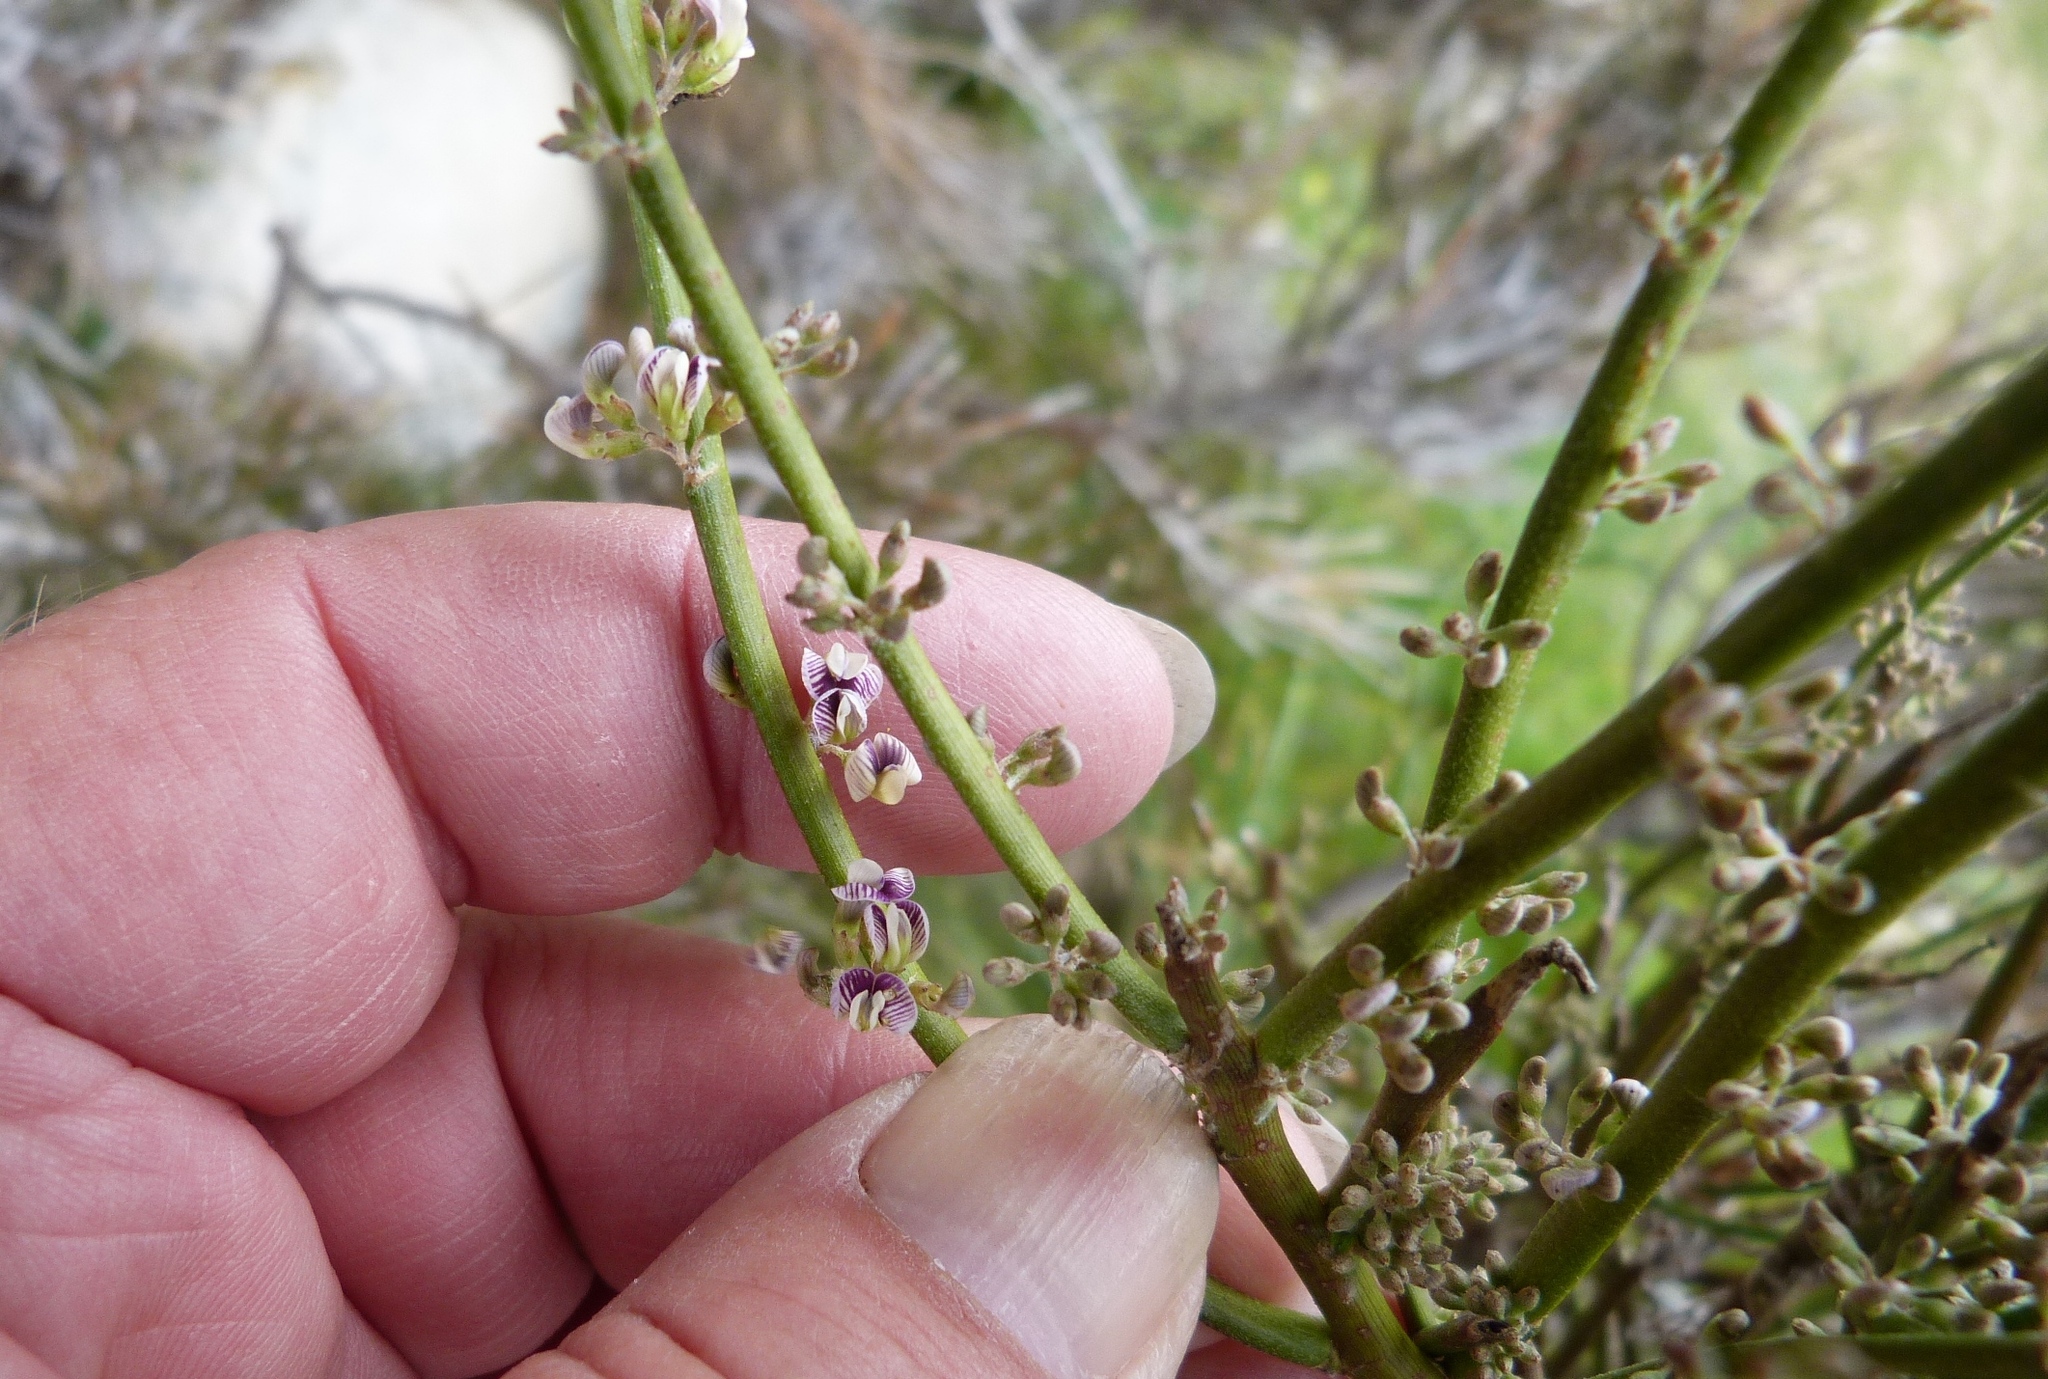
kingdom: Plantae
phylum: Tracheophyta
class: Magnoliopsida
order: Fabales
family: Fabaceae
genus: Carmichaelia
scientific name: Carmichaelia australis
